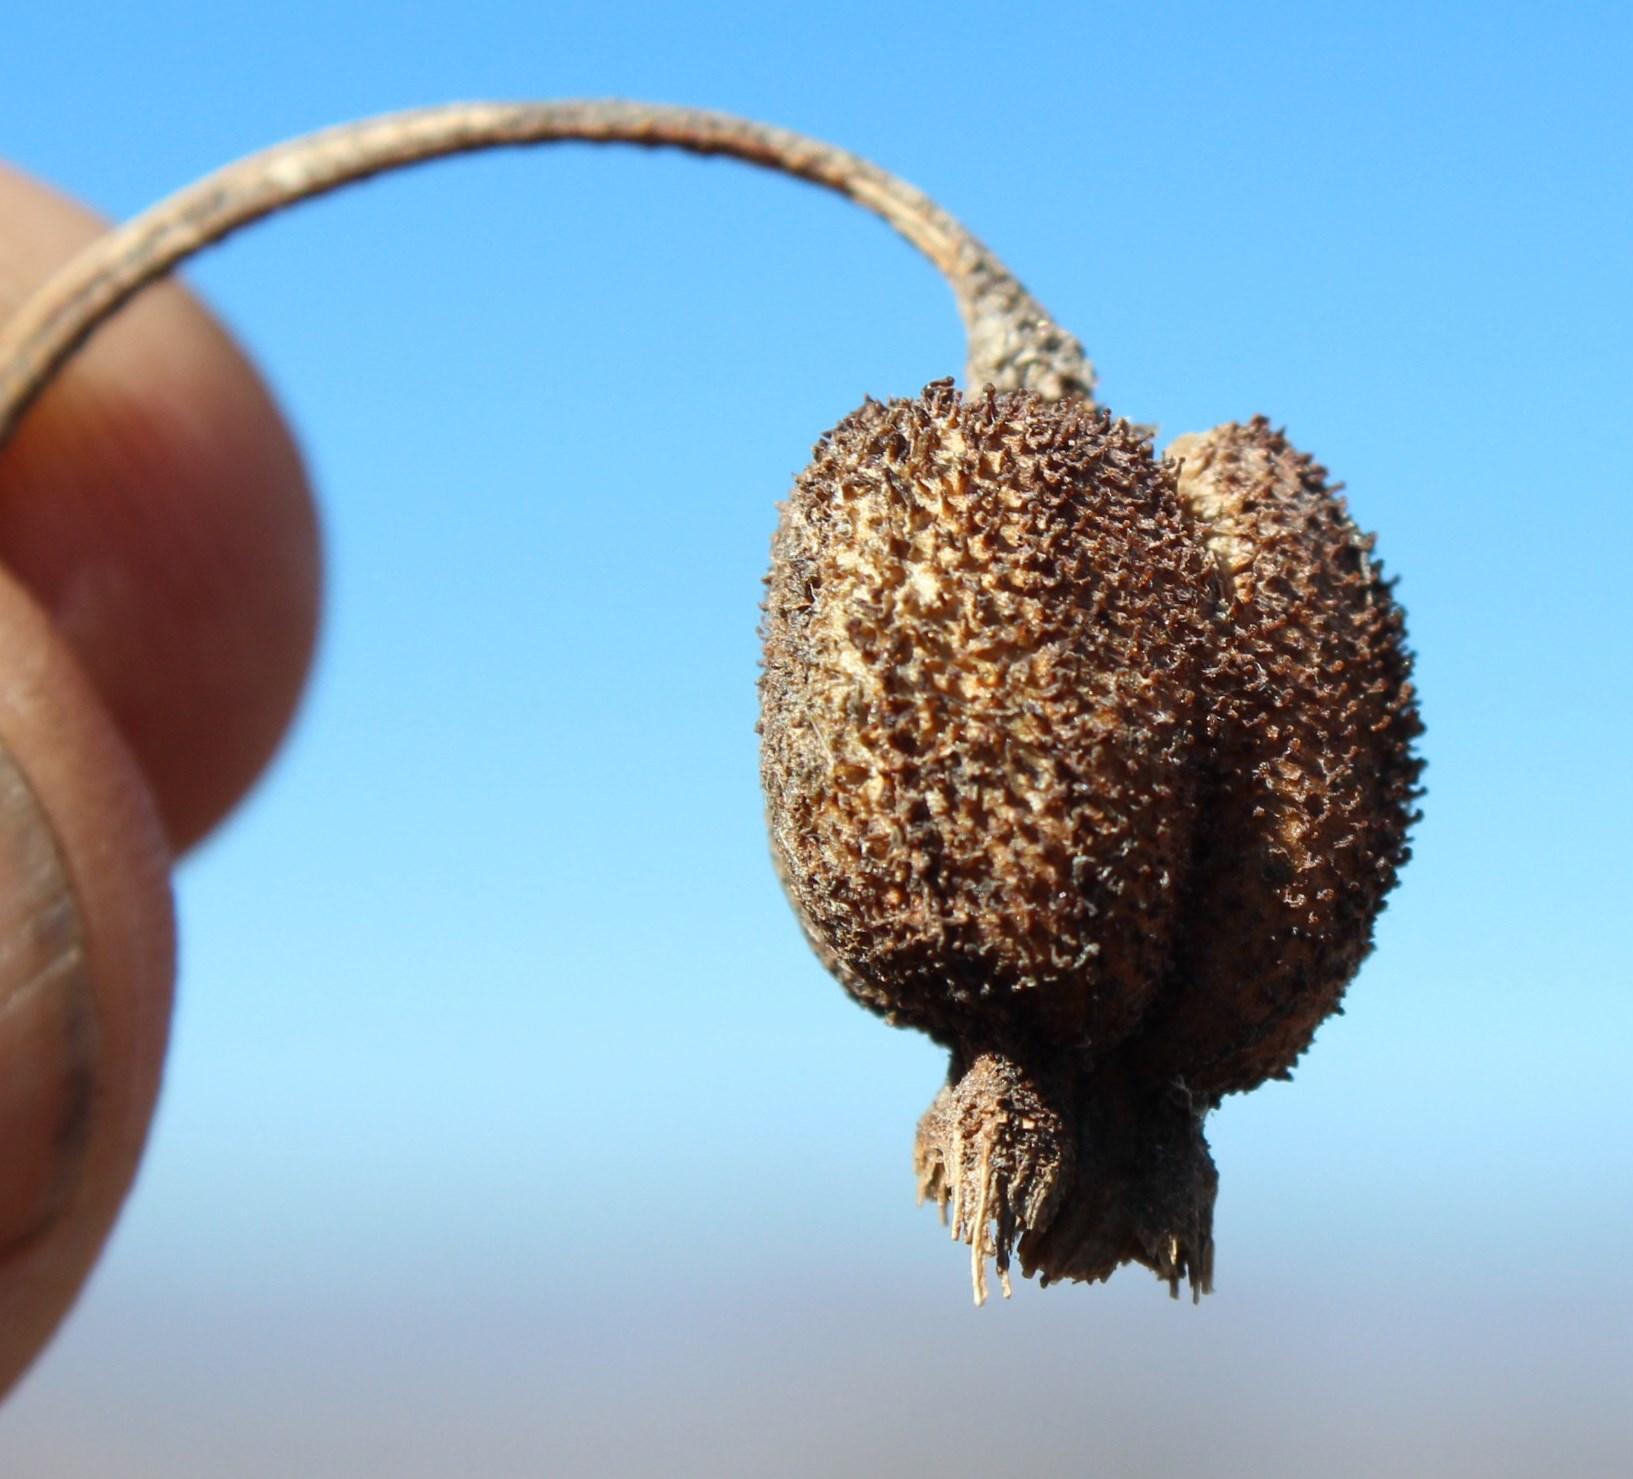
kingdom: Plantae
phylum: Tracheophyta
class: Liliopsida
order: Pandanales
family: Velloziaceae
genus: Xerophyta
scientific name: Xerophyta viscosa
